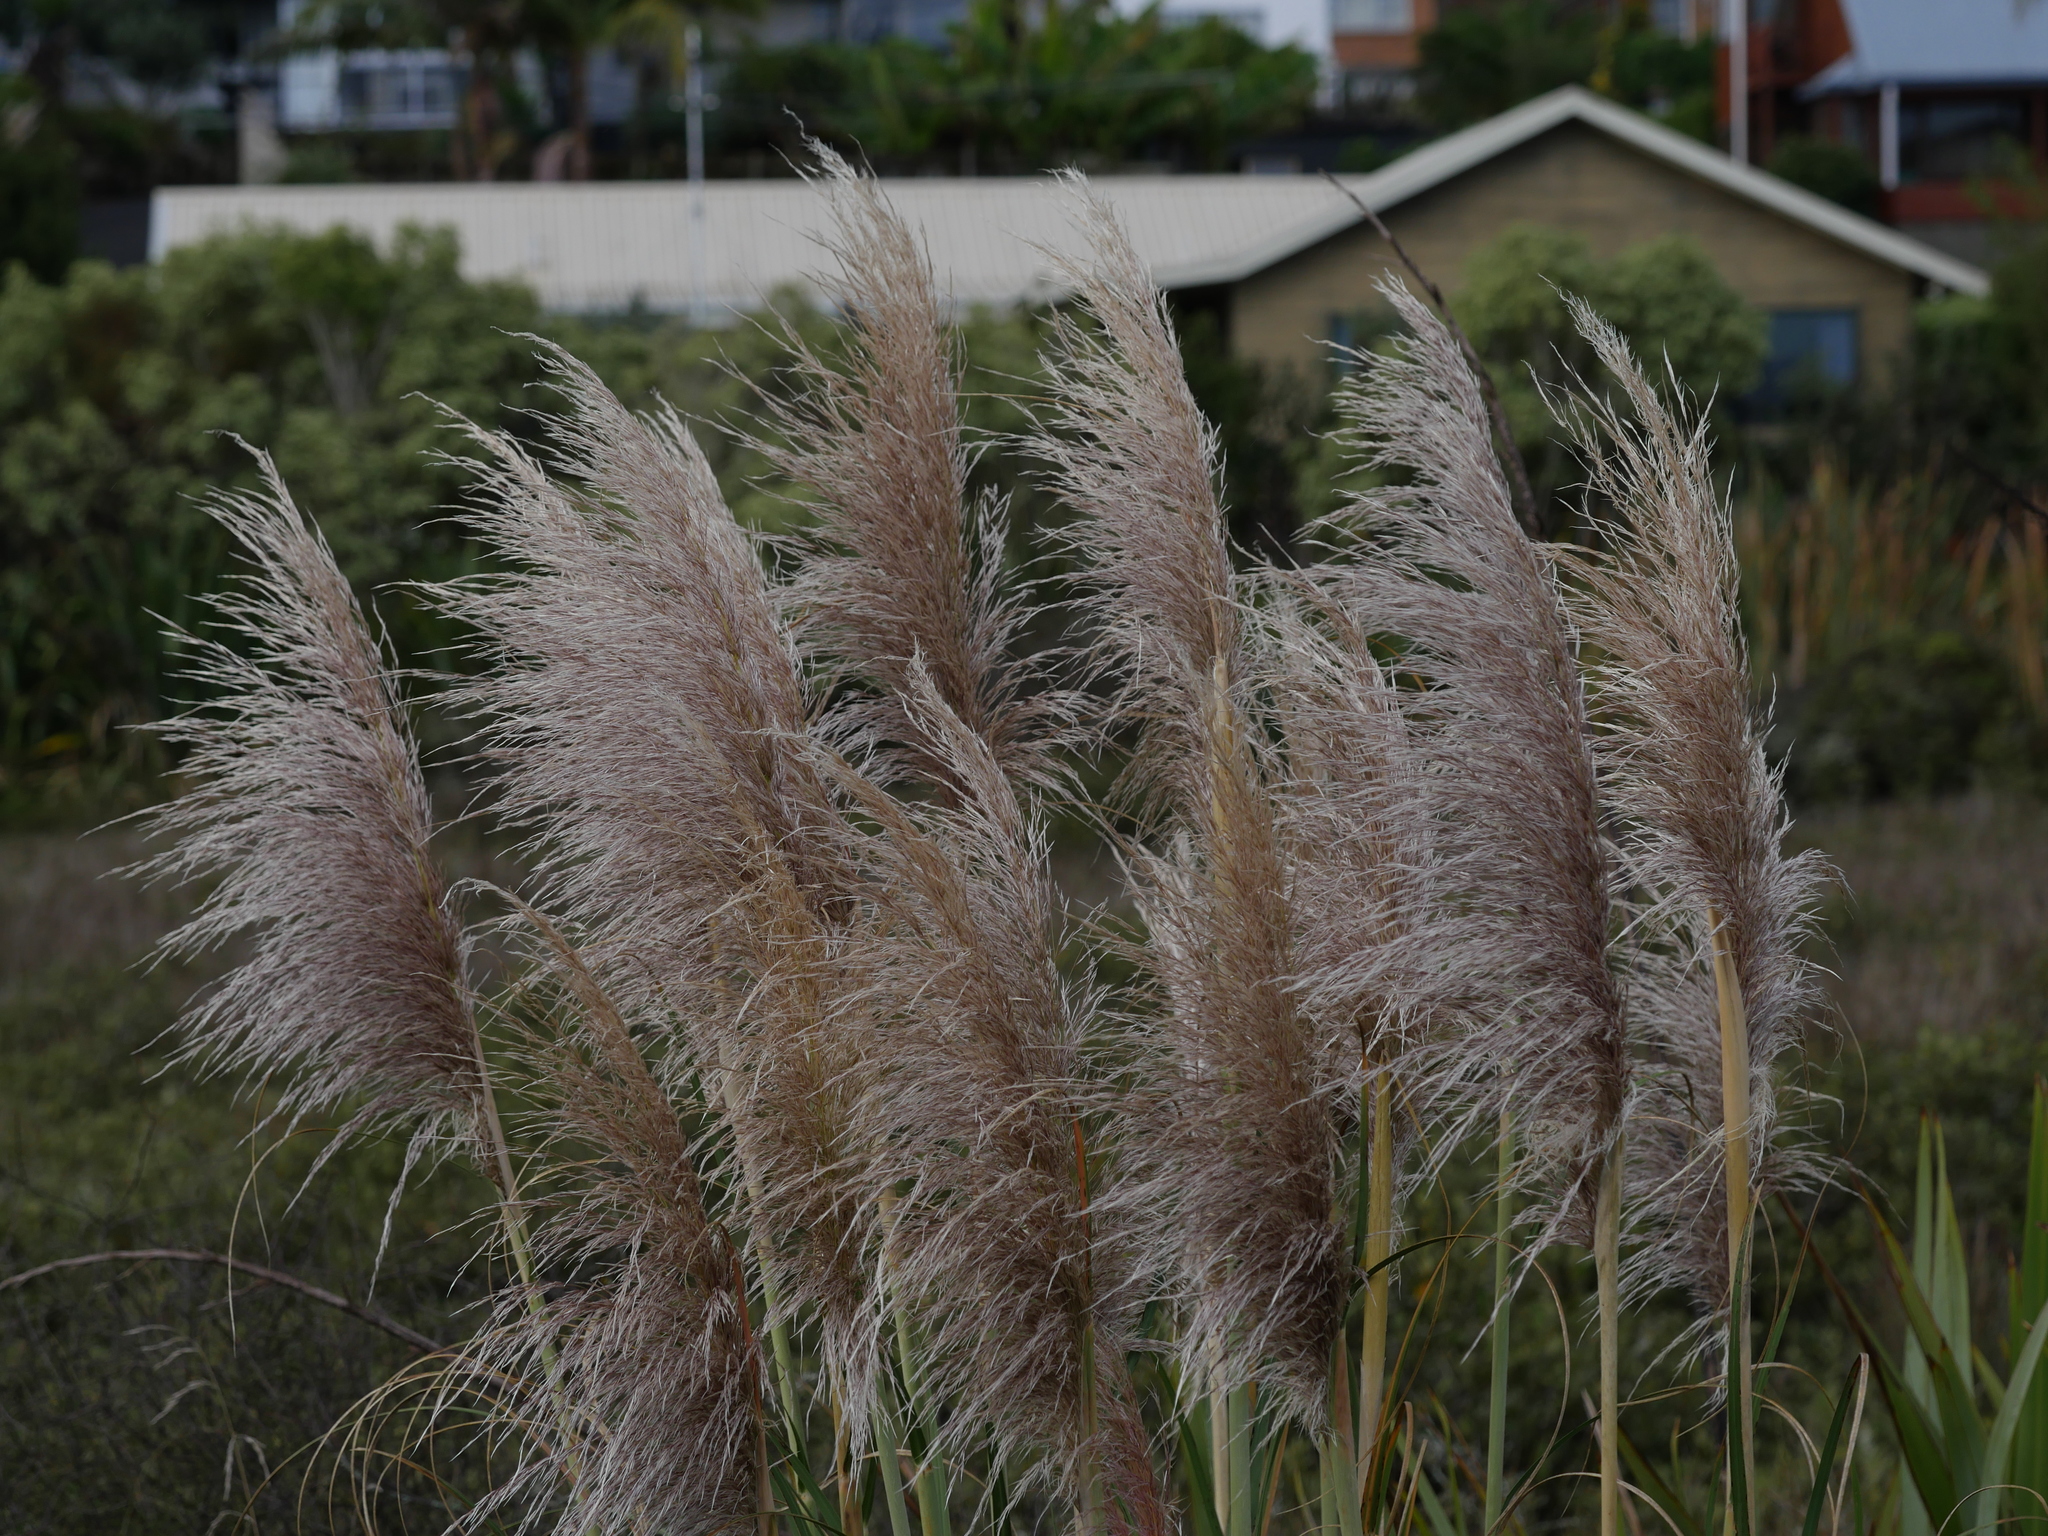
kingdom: Plantae
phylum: Tracheophyta
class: Liliopsida
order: Poales
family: Poaceae
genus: Cortaderia
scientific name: Cortaderia jubata
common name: Purple pampas grass
